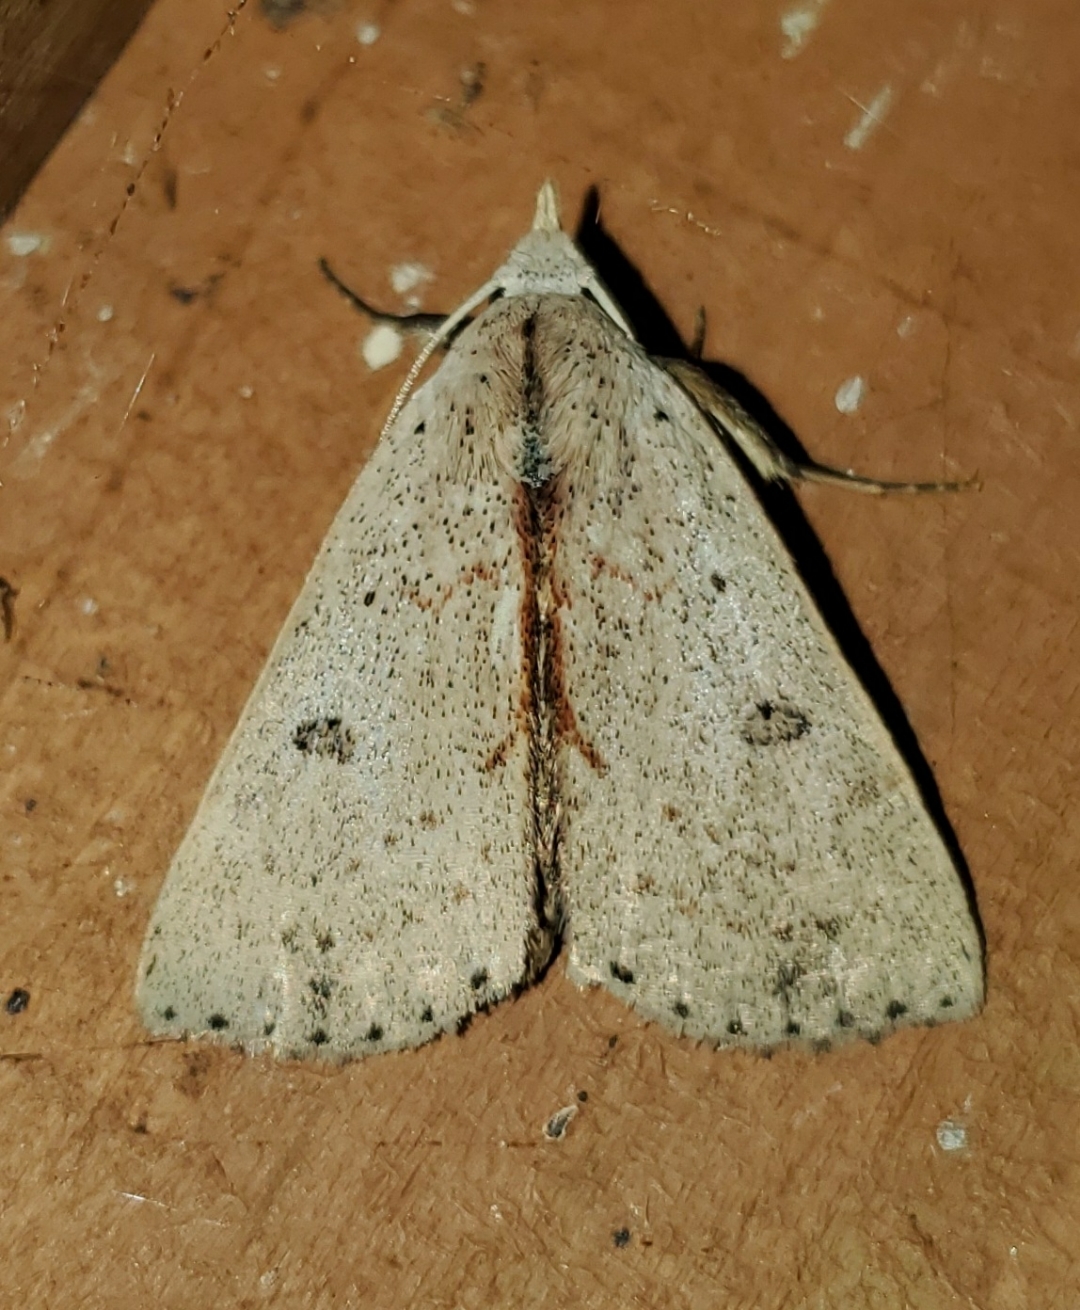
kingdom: Animalia
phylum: Arthropoda
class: Insecta
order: Lepidoptera
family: Erebidae
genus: Scolecocampa
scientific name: Scolecocampa liburna
